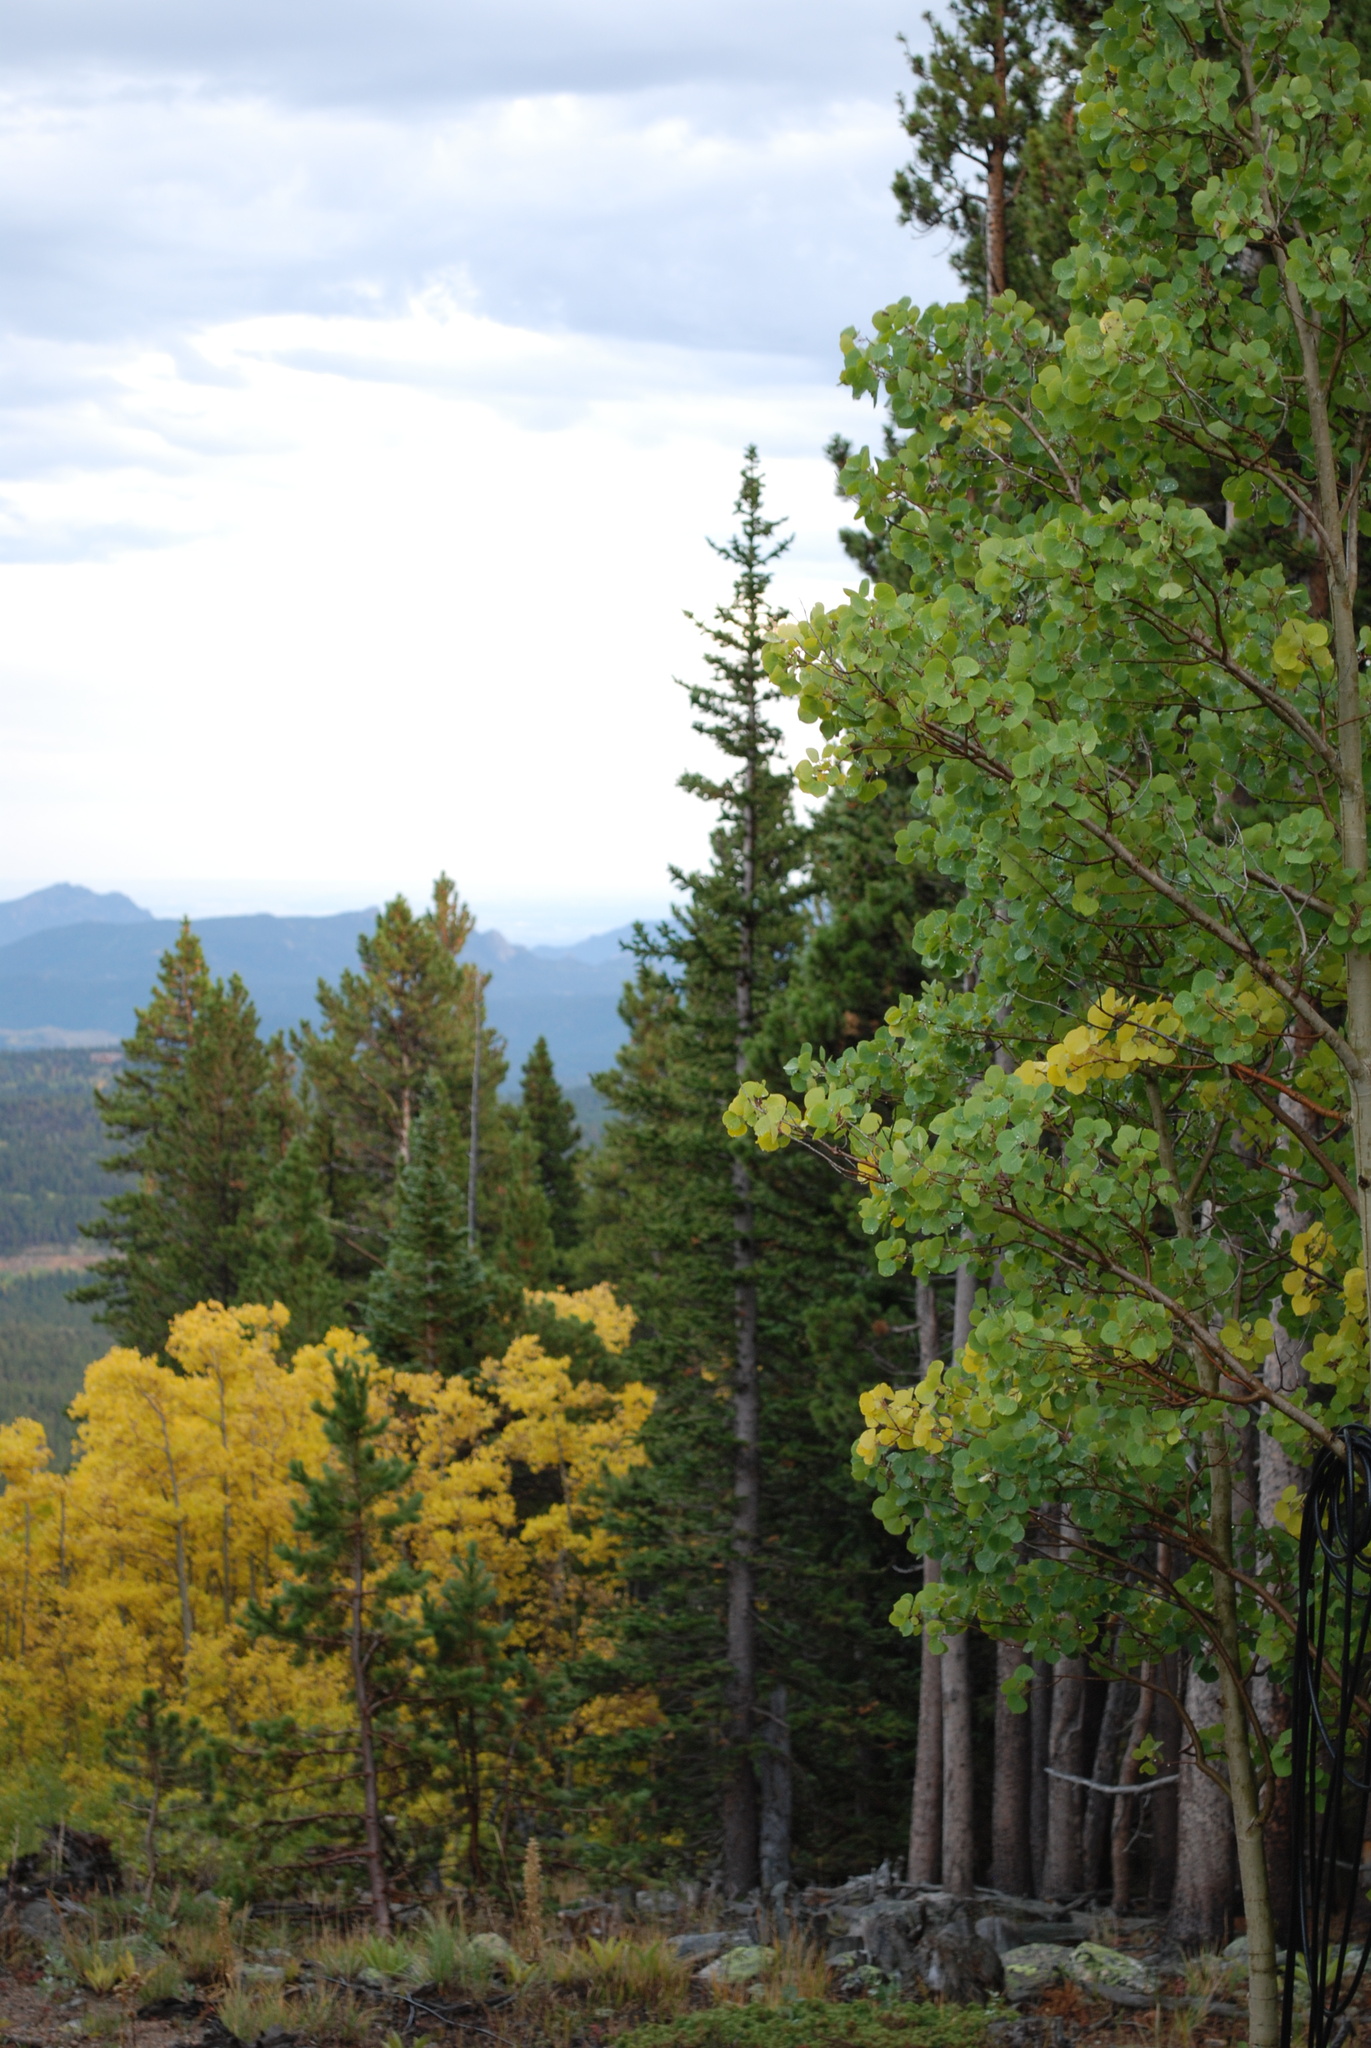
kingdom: Plantae
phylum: Tracheophyta
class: Magnoliopsida
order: Malpighiales
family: Salicaceae
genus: Populus
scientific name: Populus tremuloides
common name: Quaking aspen
